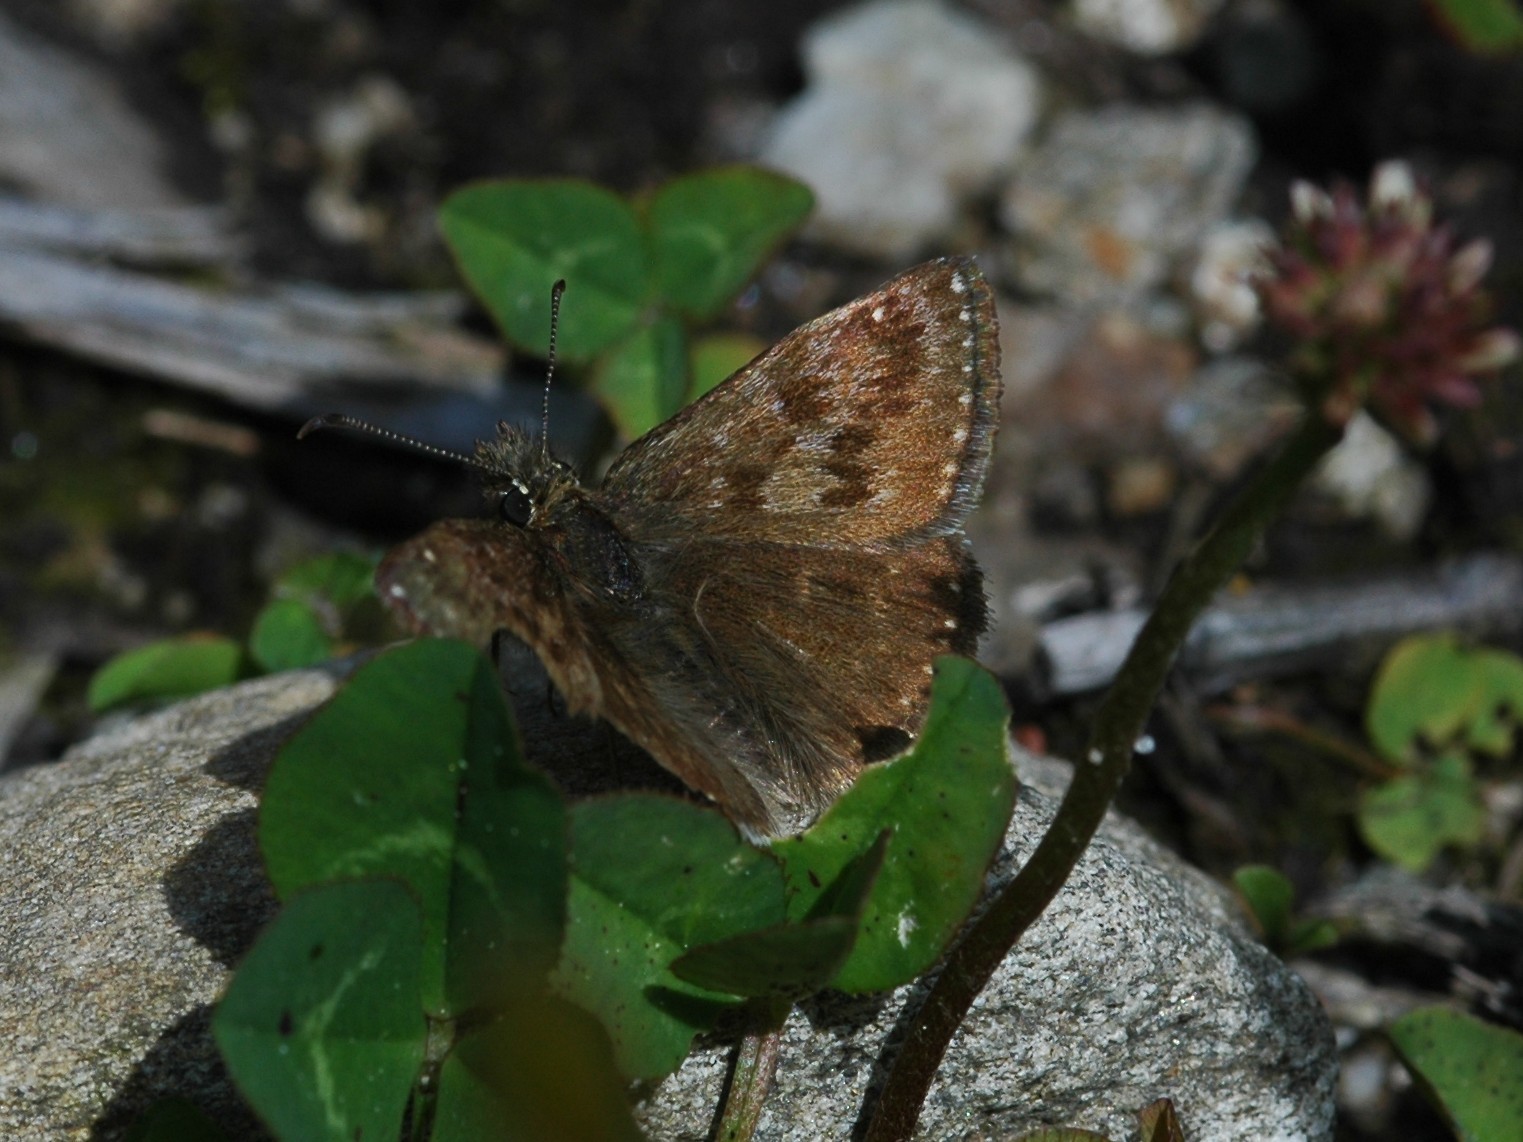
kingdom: Animalia
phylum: Arthropoda
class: Insecta
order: Lepidoptera
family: Hesperiidae
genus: Erynnis
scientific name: Erynnis tages
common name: Dingy skipper
